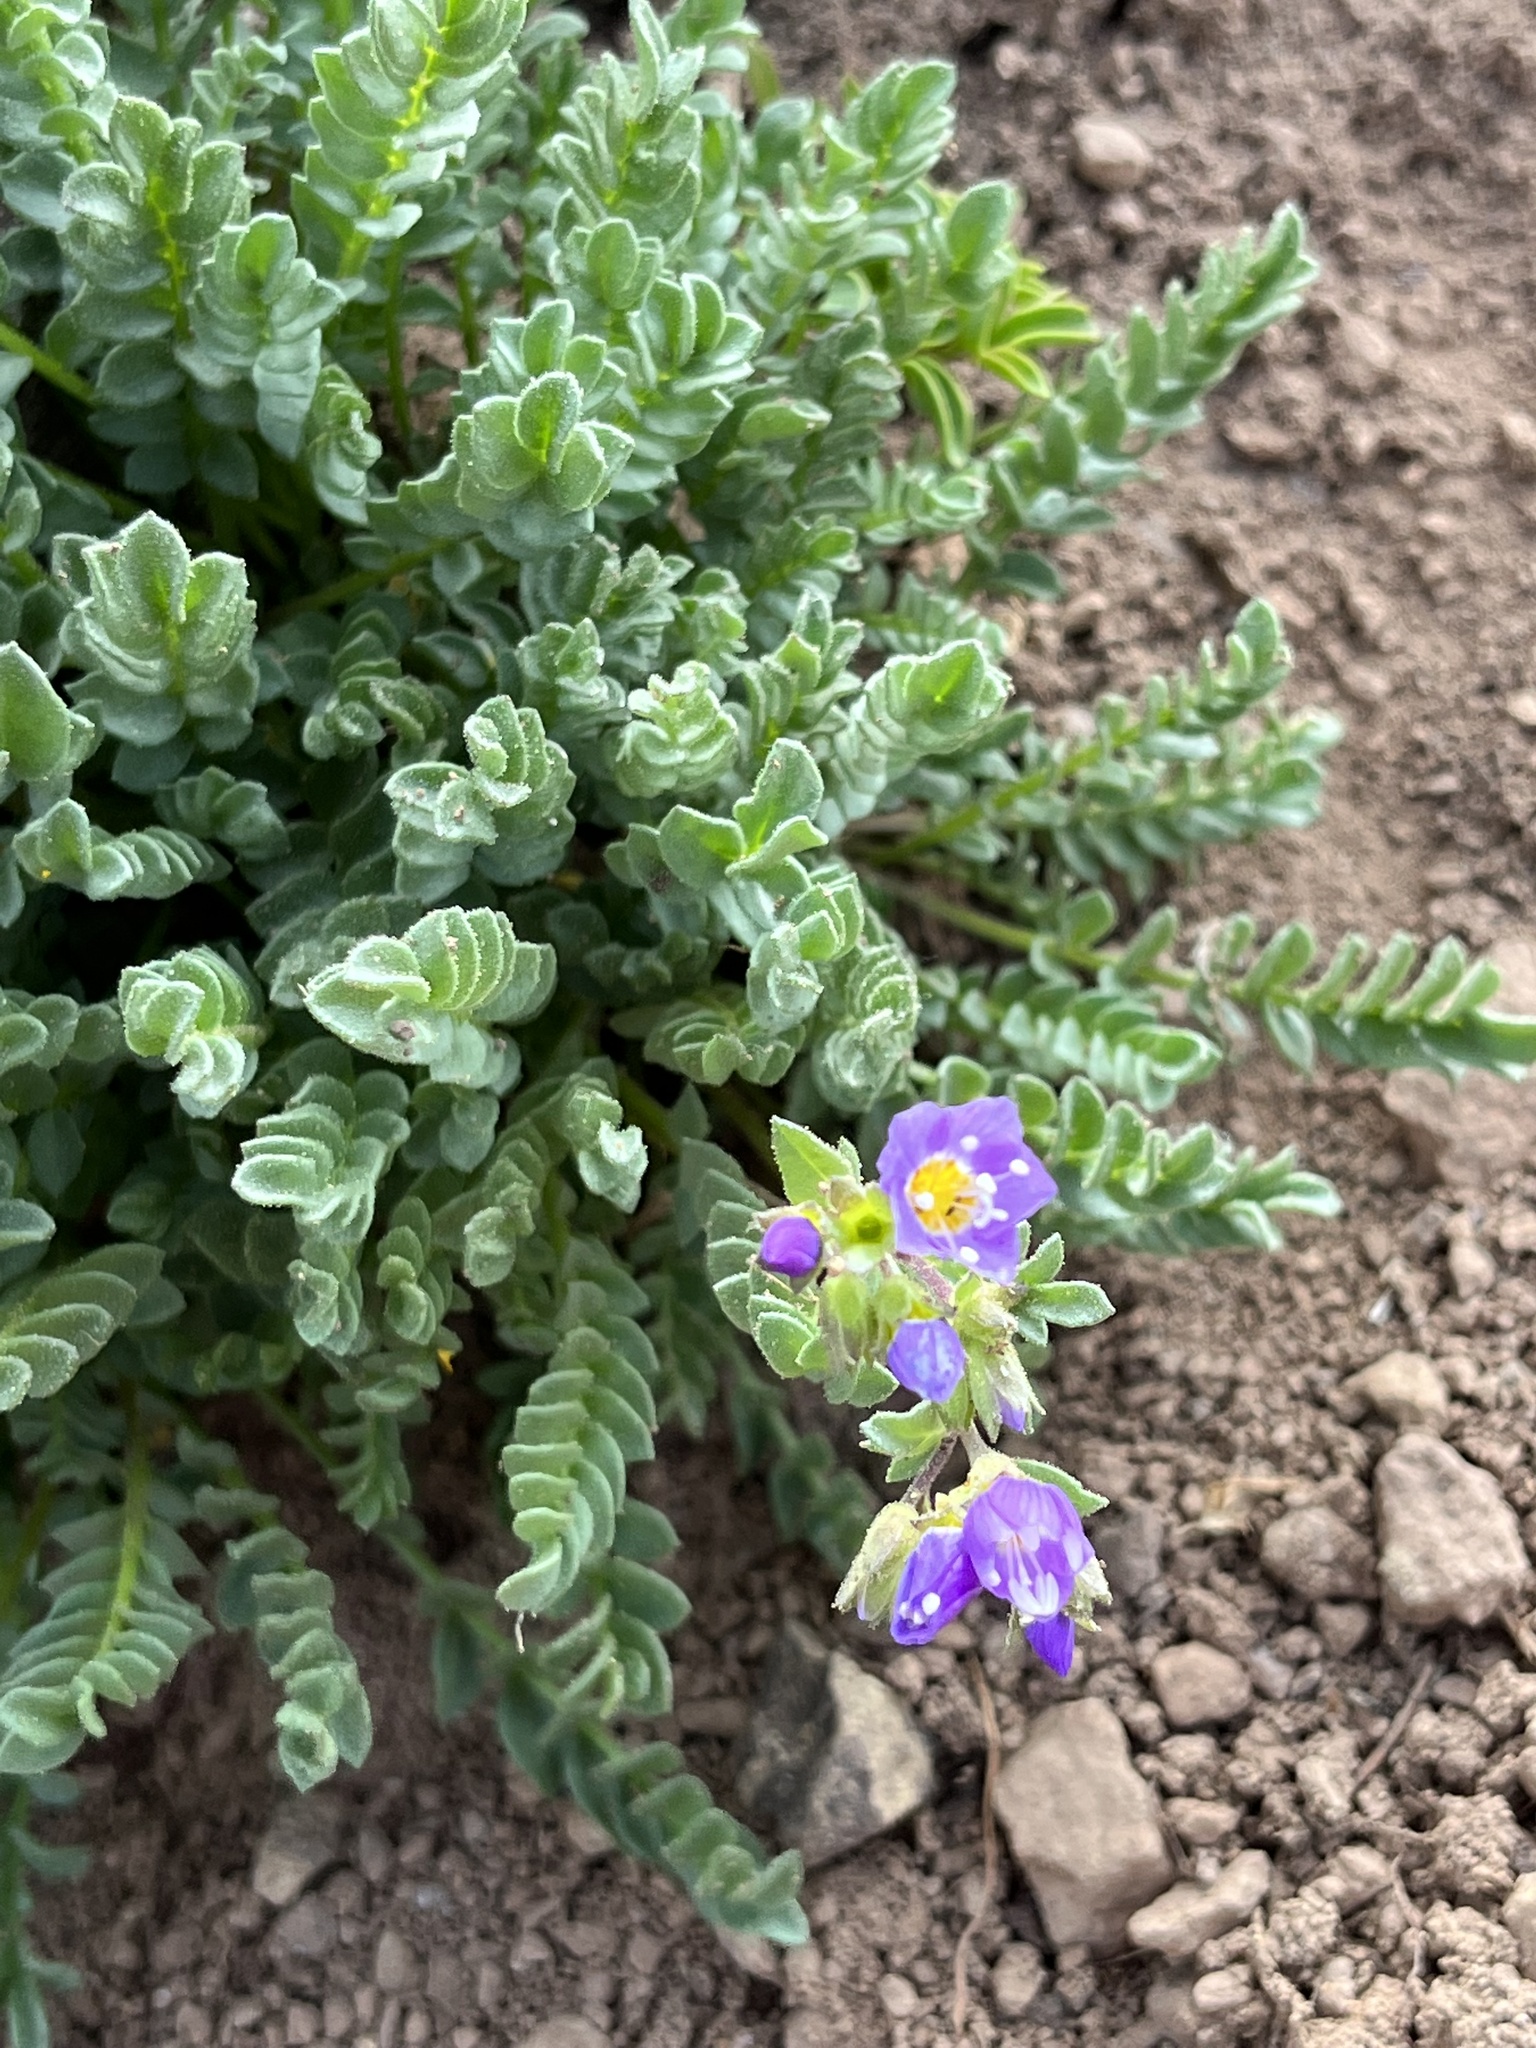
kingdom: Plantae
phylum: Tracheophyta
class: Magnoliopsida
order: Ericales
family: Polemoniaceae
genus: Polemonium
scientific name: Polemonium pulcherrimum
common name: Short jacob's-ladder
